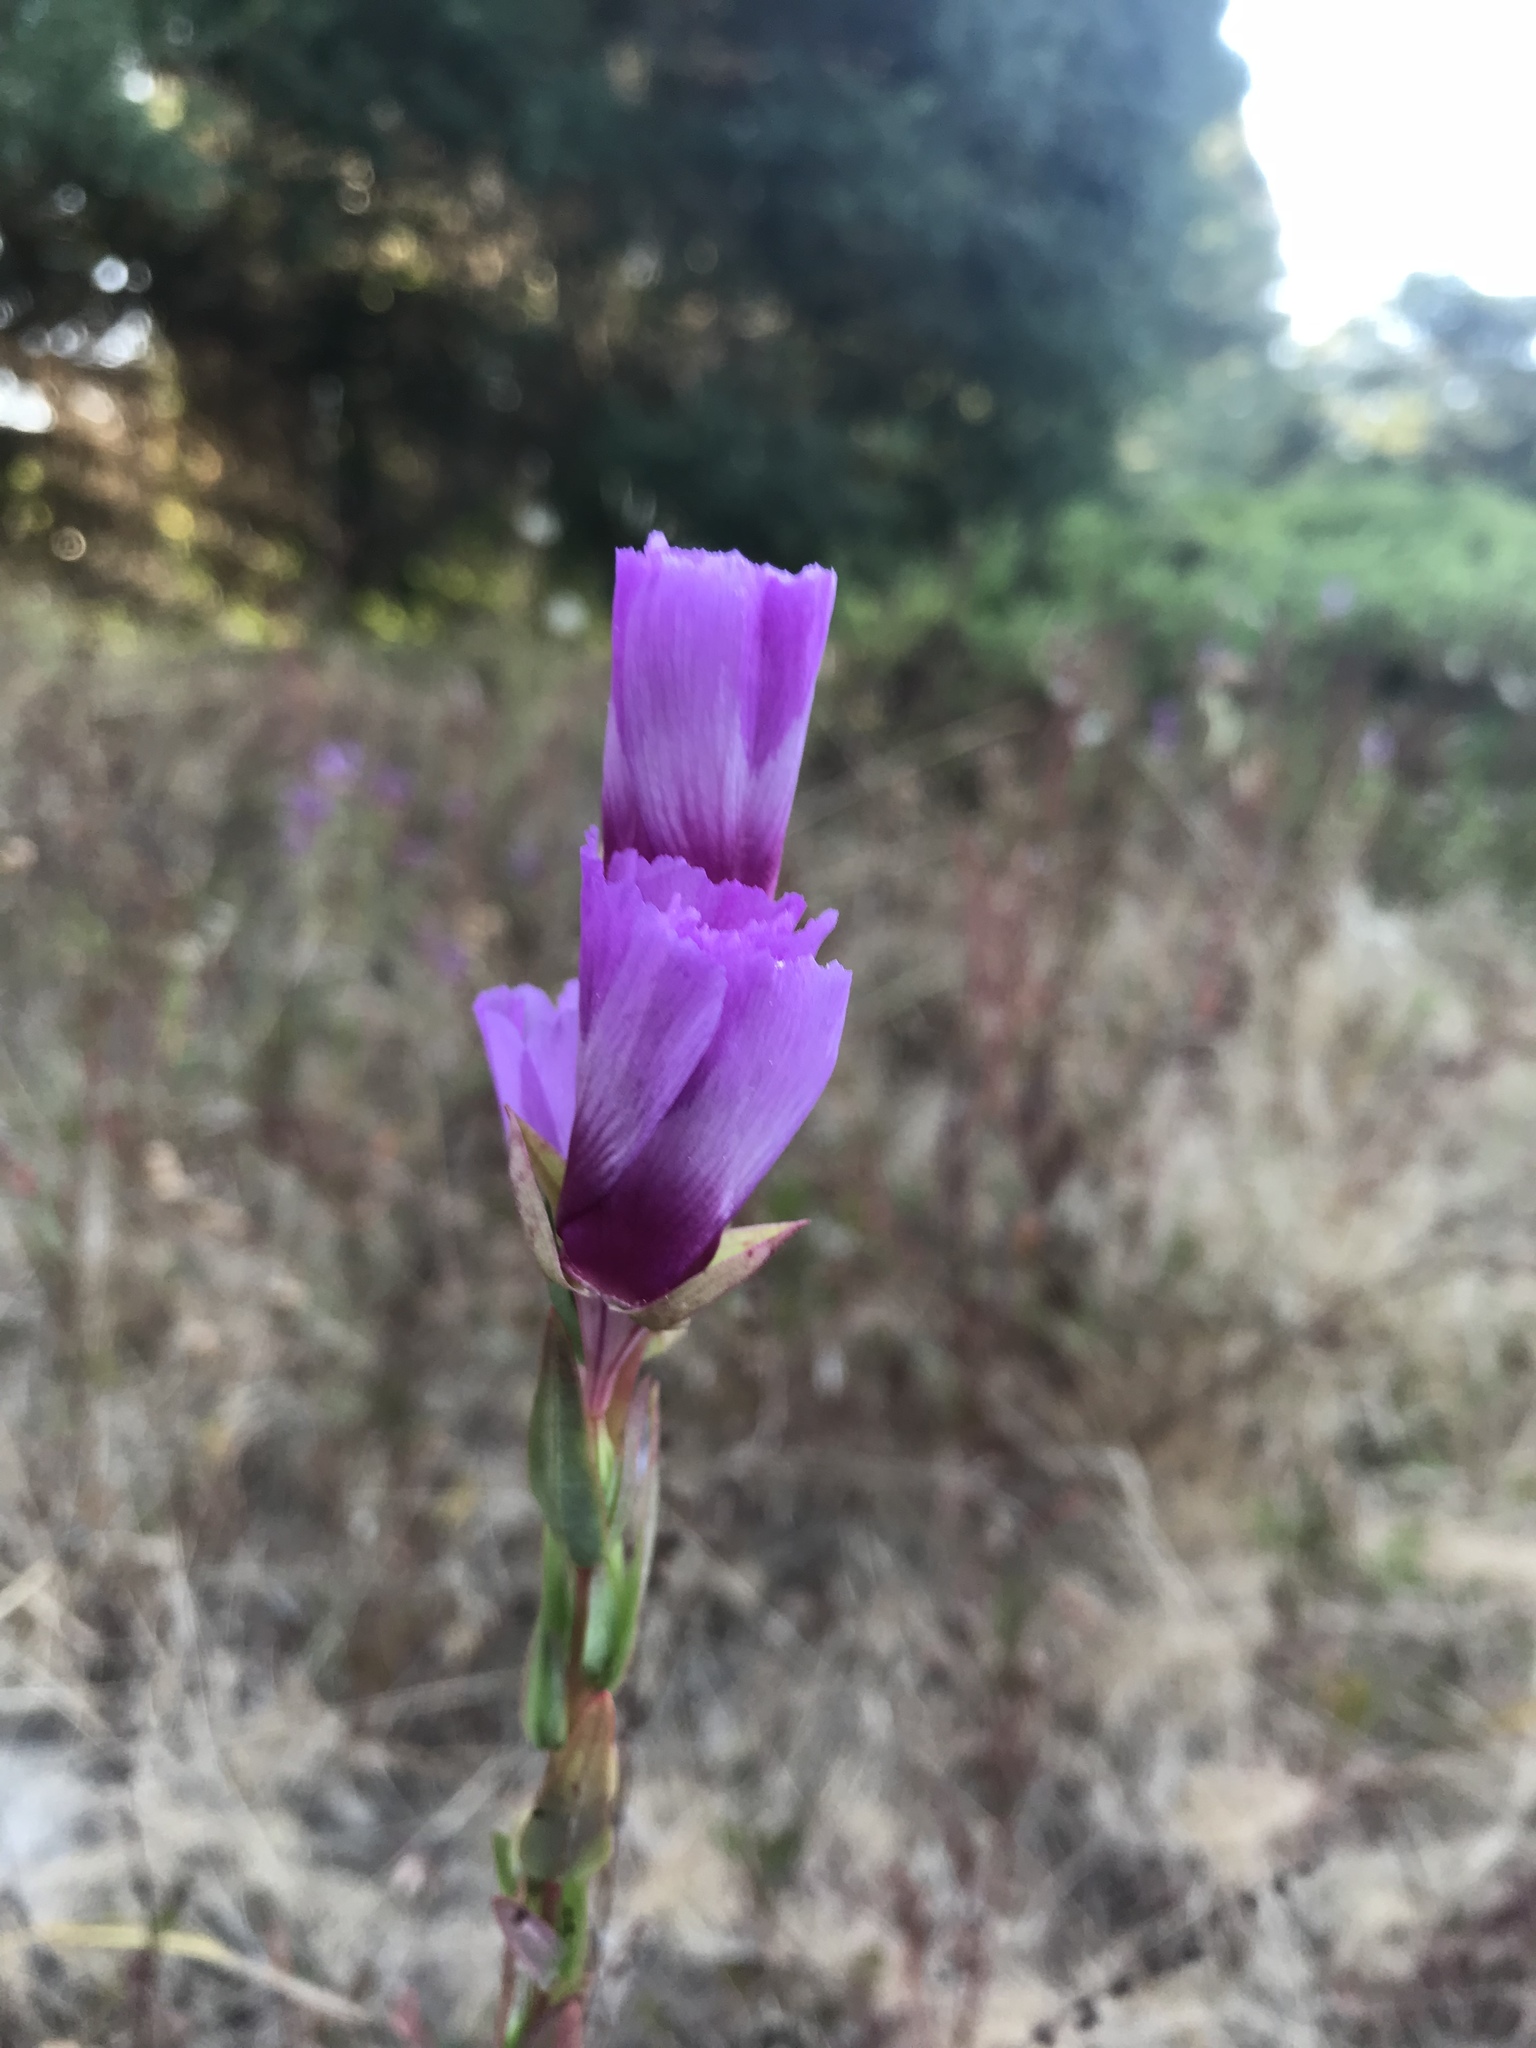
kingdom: Plantae
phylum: Tracheophyta
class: Magnoliopsida
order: Myrtales
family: Onagraceae
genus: Clarkia
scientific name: Clarkia imbricata
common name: Vine hill clarkia
